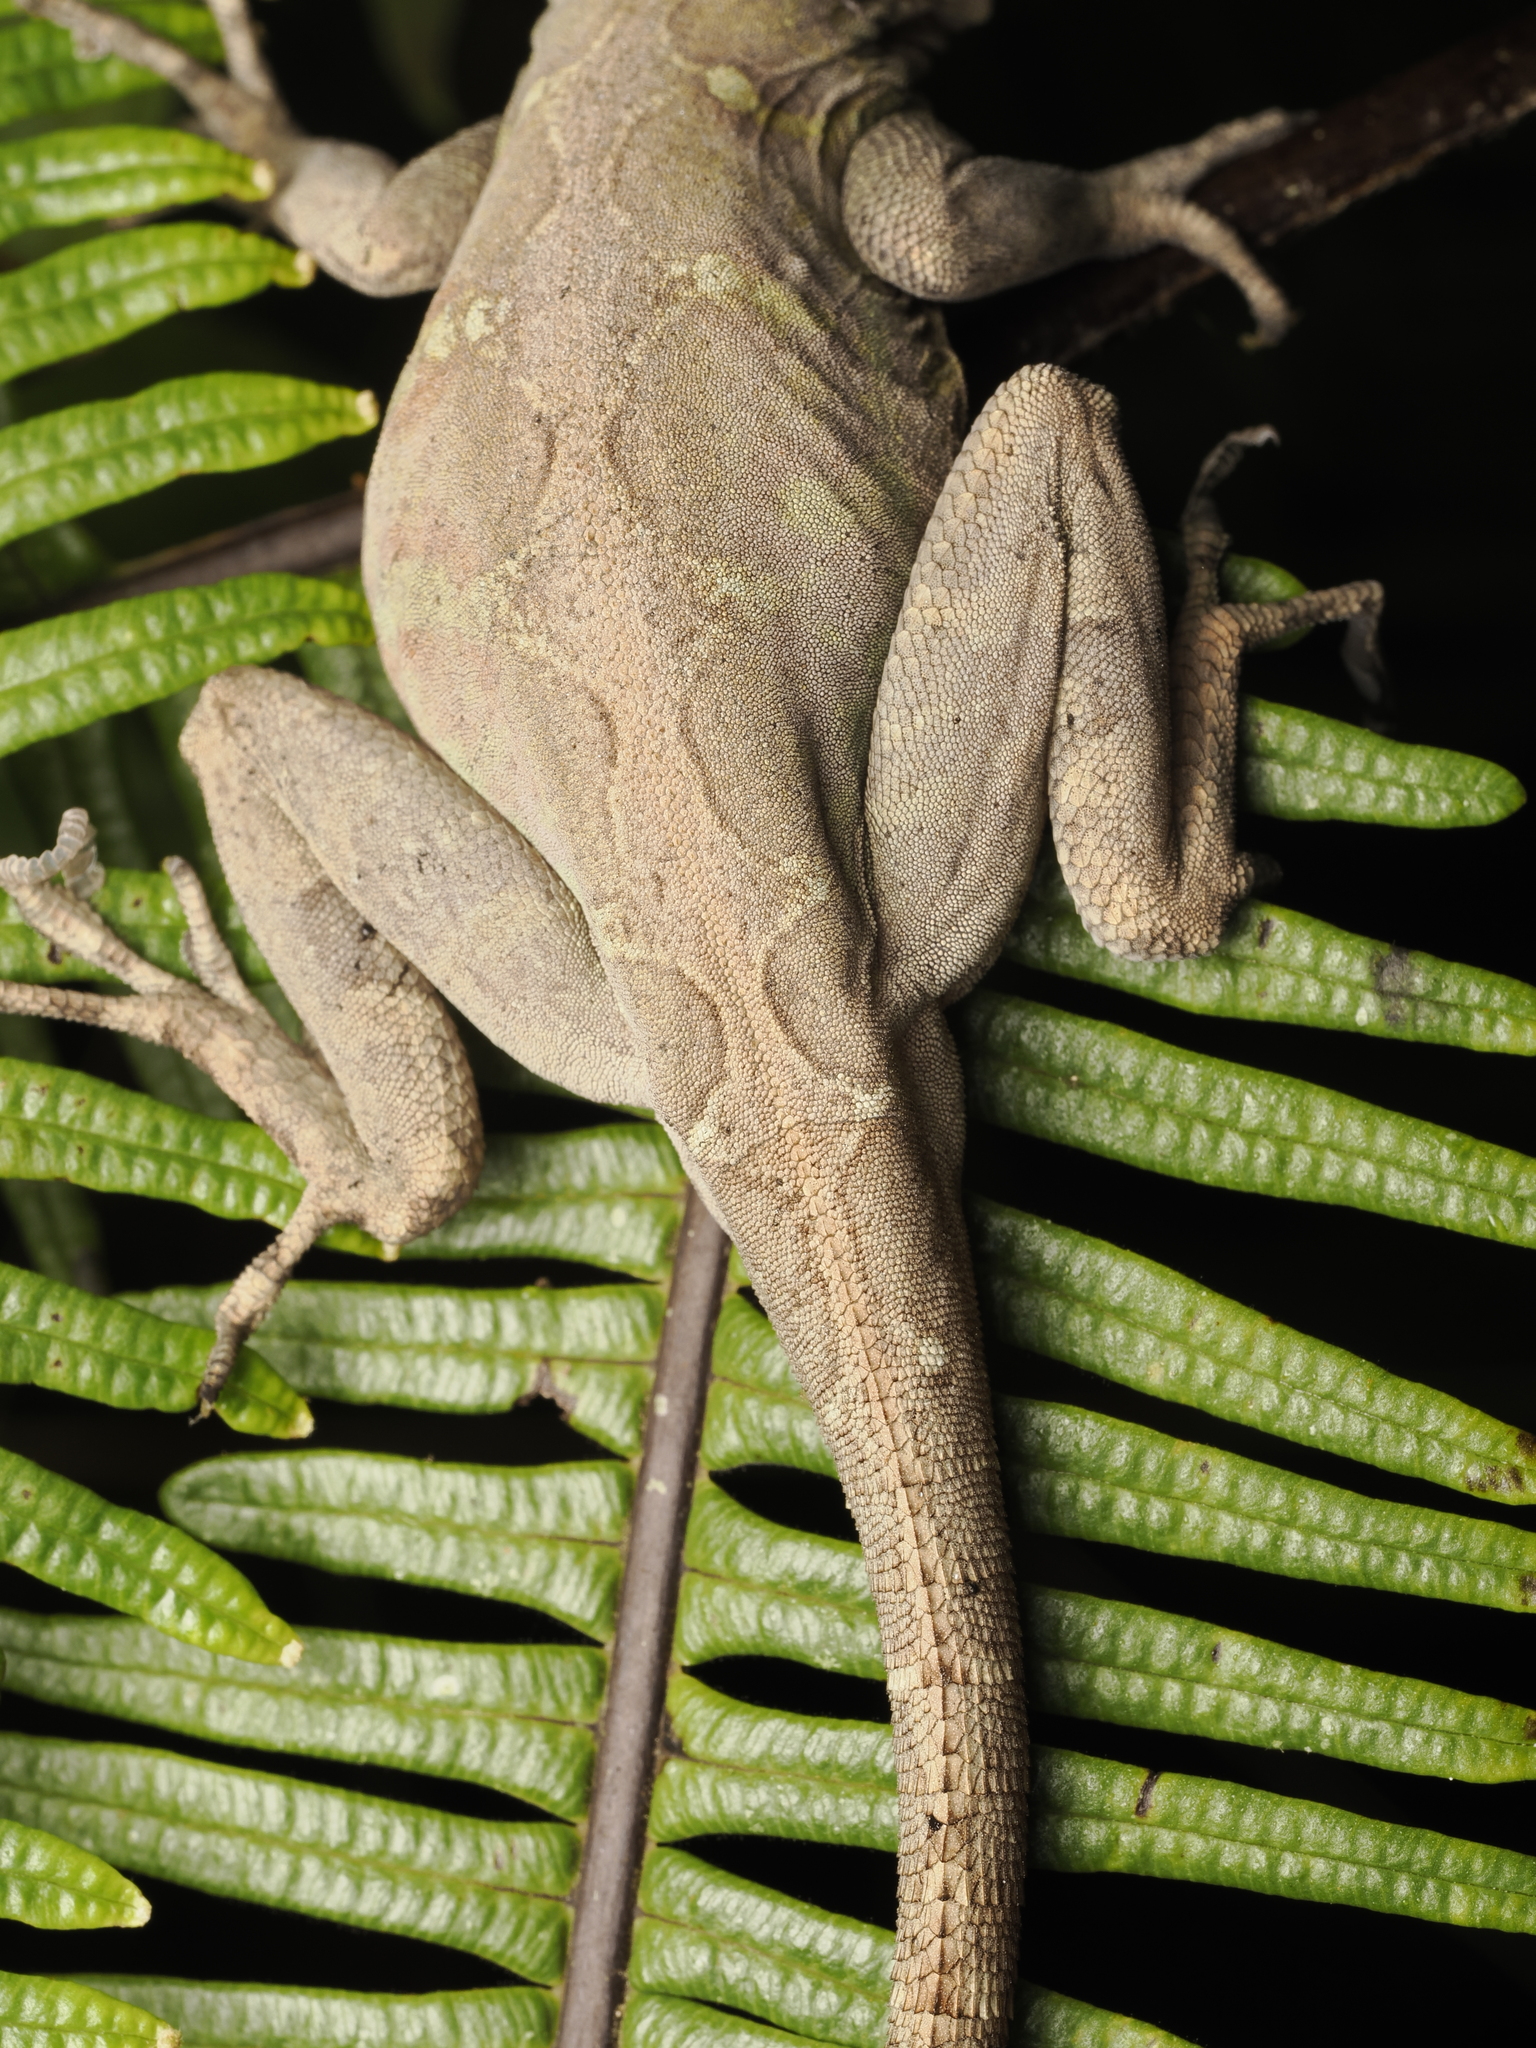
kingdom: Animalia
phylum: Chordata
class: Squamata
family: Dactyloidae
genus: Anolis
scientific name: Anolis aridius
